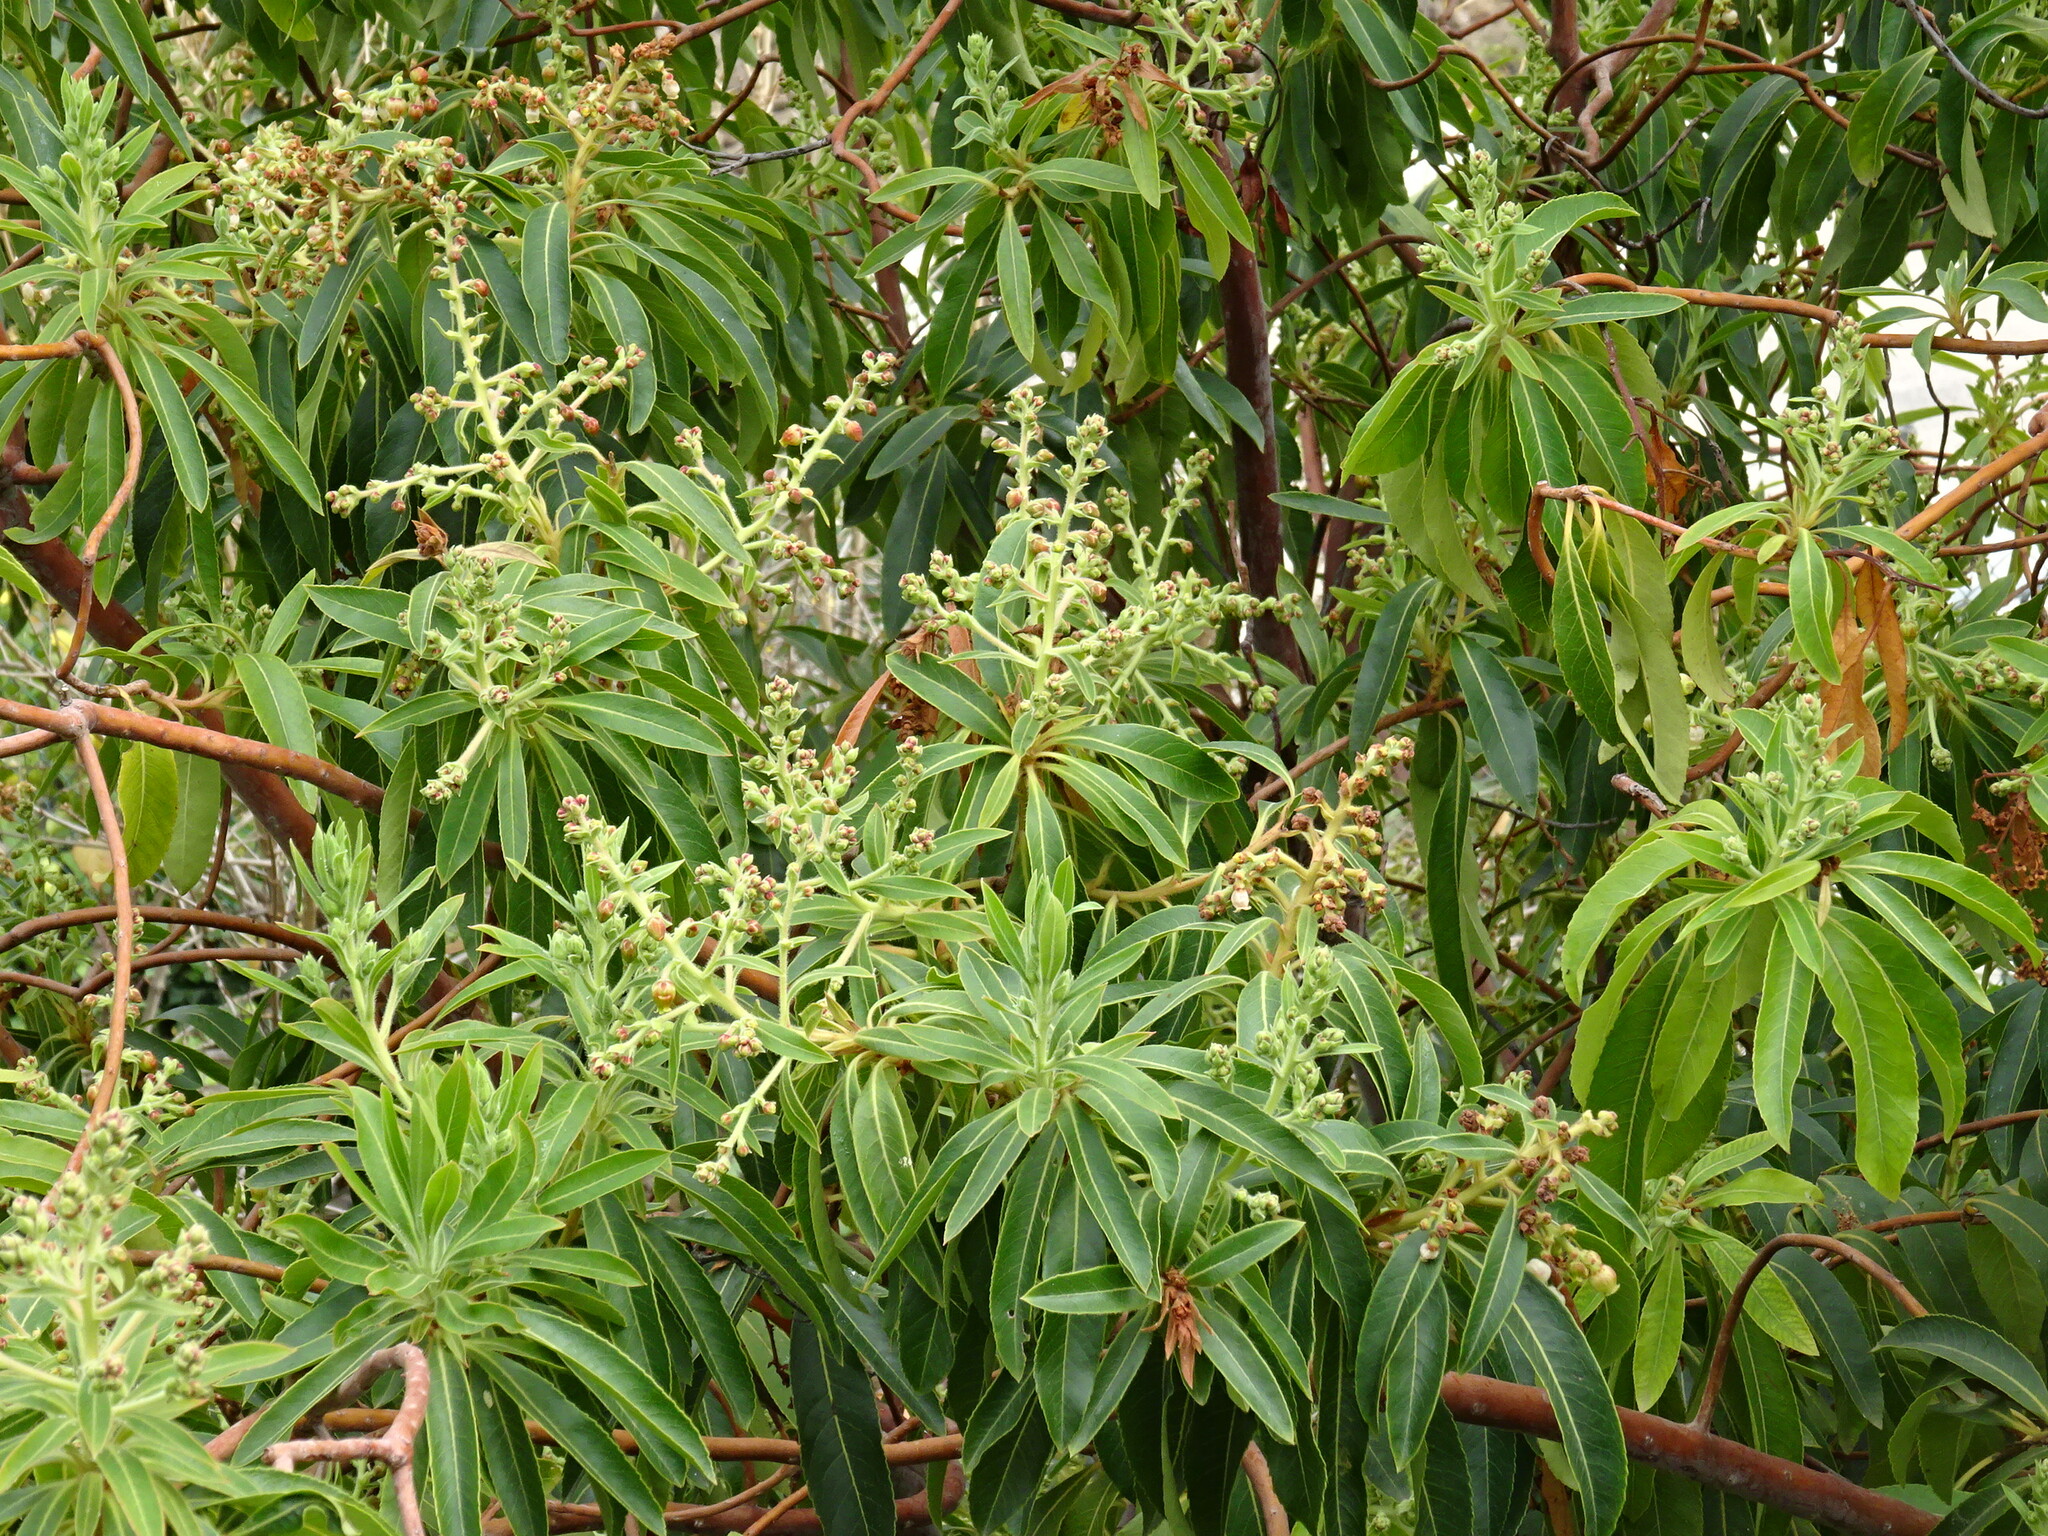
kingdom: Plantae
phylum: Tracheophyta
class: Magnoliopsida
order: Ericales
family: Ericaceae
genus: Arbutus
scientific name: Arbutus canariensis
